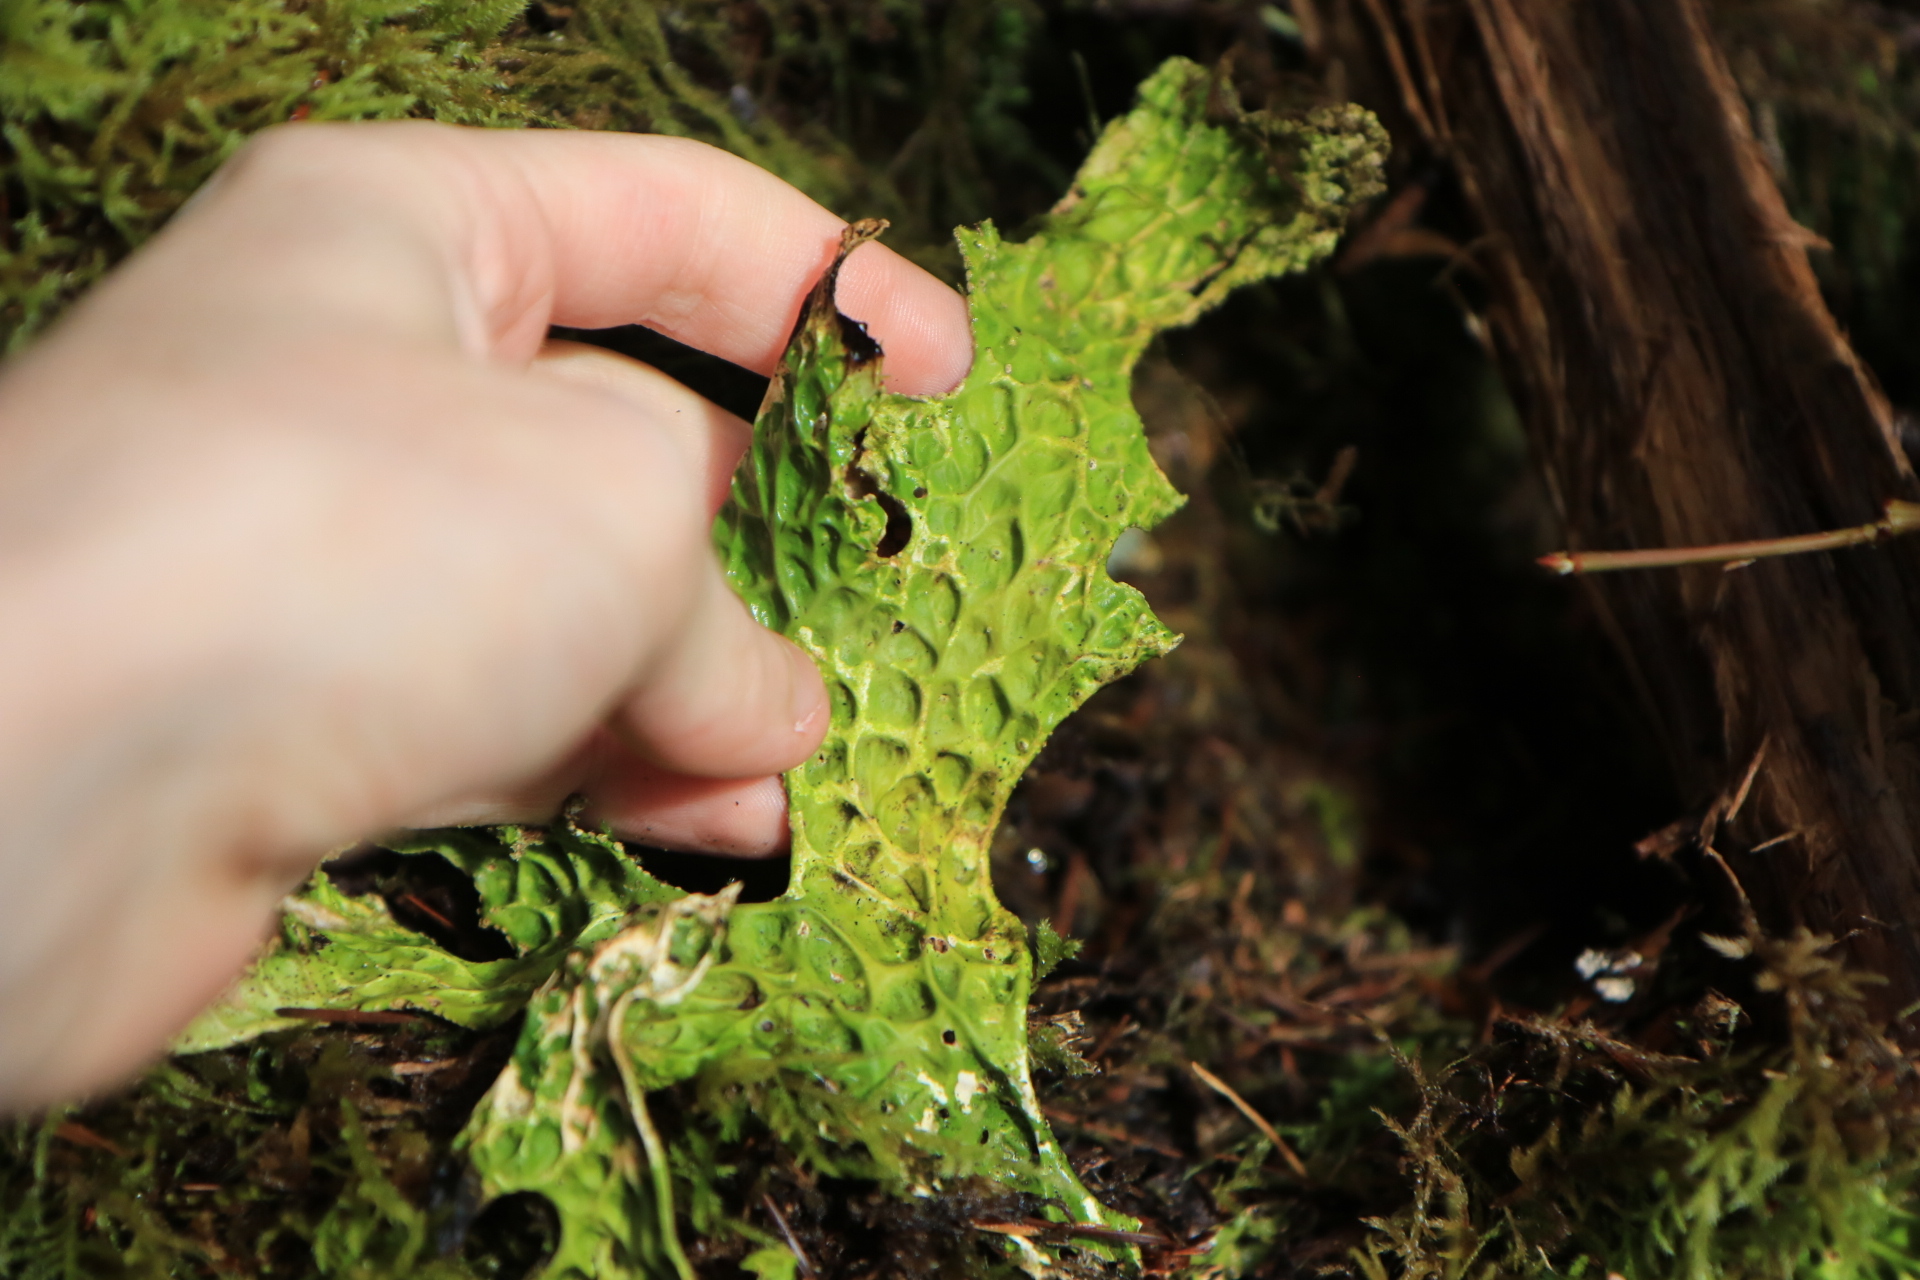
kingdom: Fungi
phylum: Ascomycota
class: Lecanoromycetes
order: Peltigerales
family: Lobariaceae
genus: Lobaria
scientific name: Lobaria pulmonaria
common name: Lungwort
